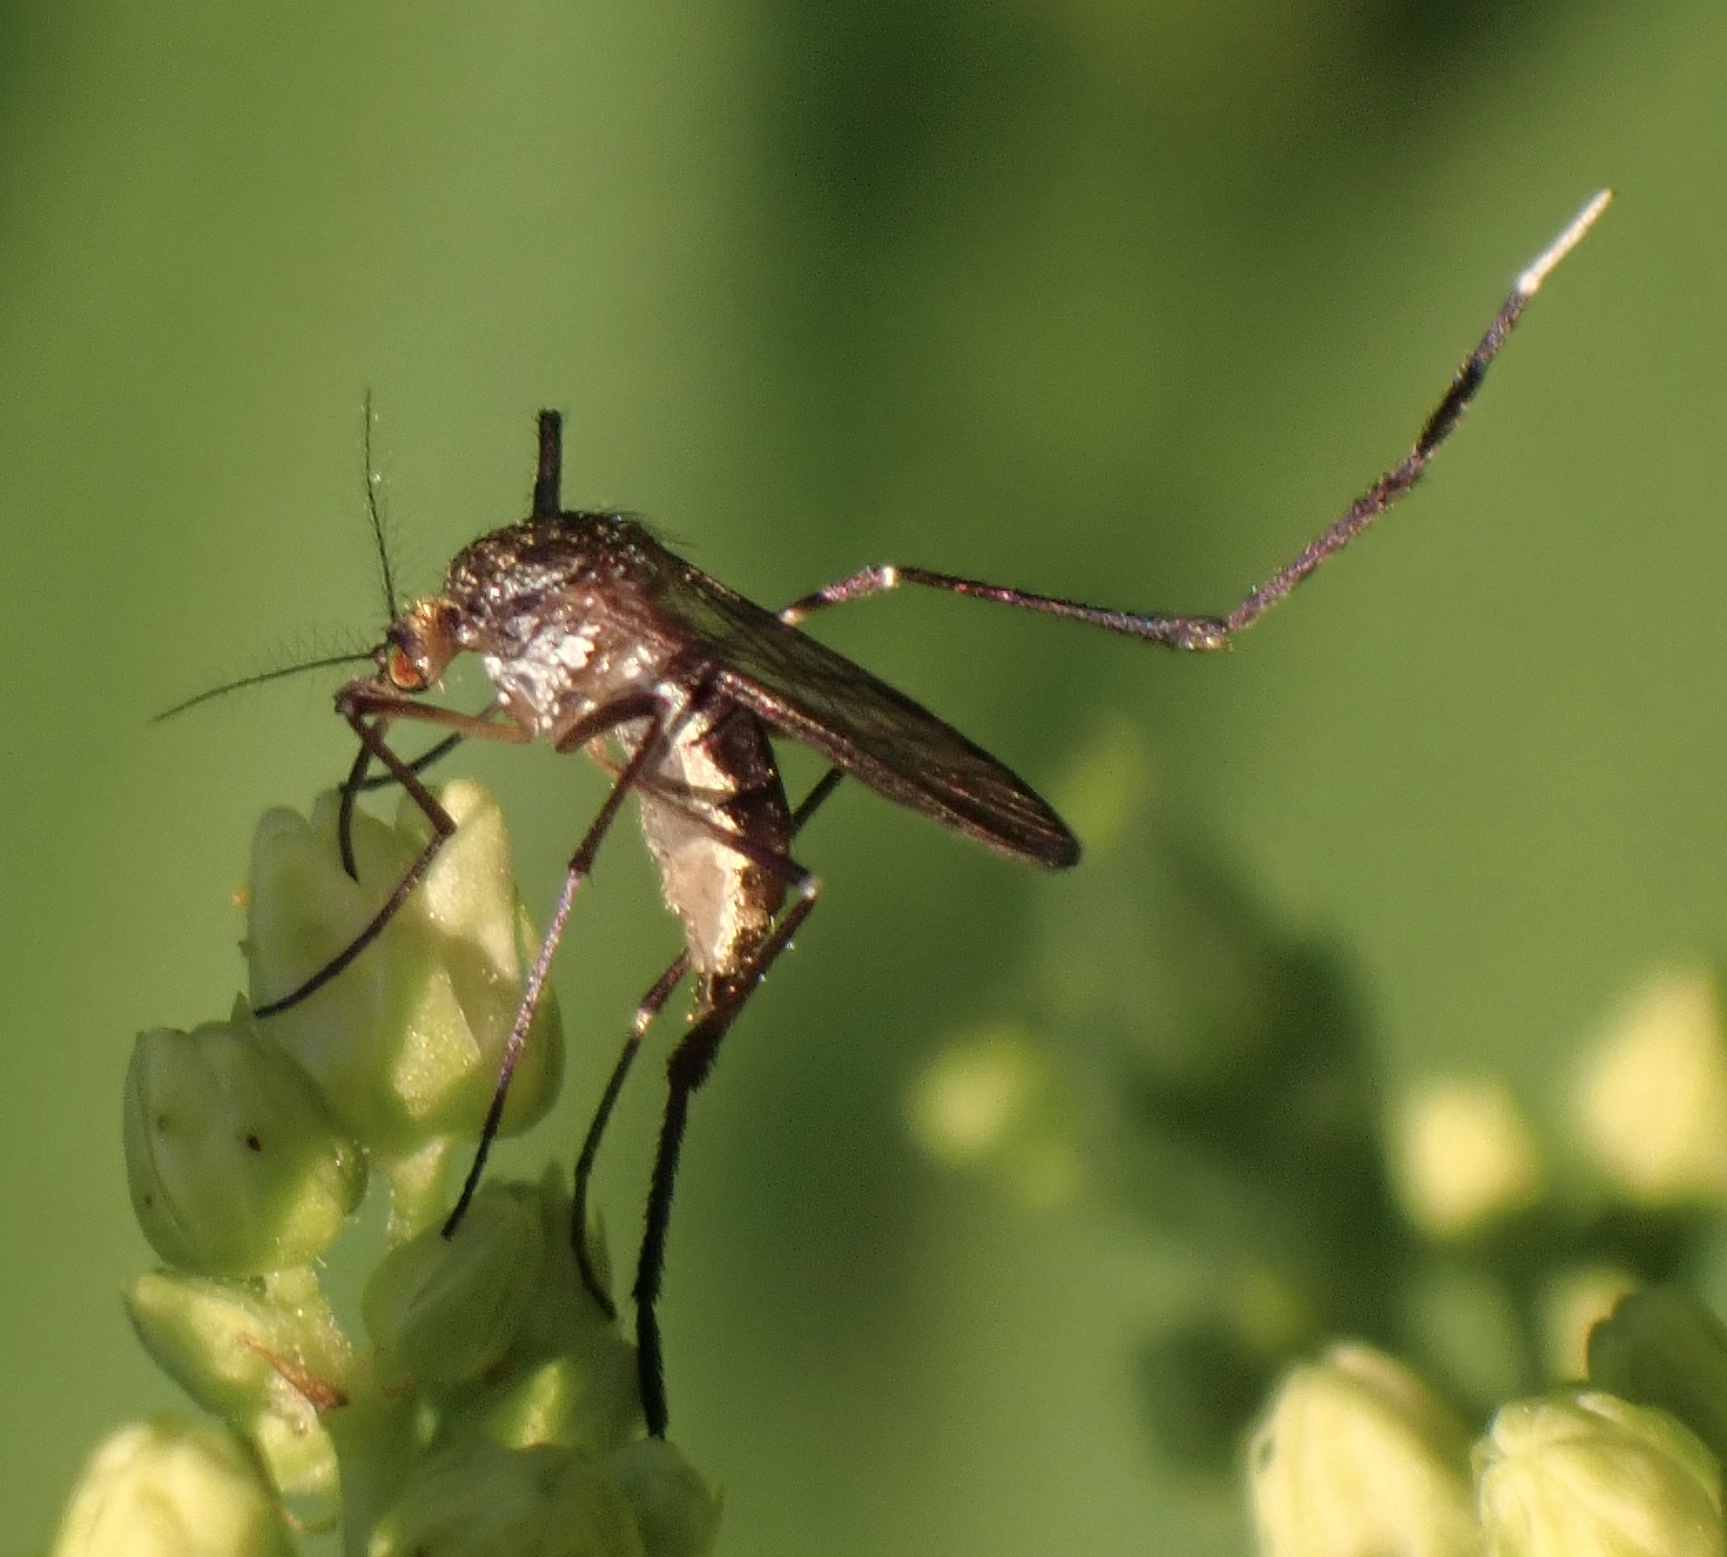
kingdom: Animalia
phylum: Arthropoda
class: Insecta
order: Diptera
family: Culicidae
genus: Psorophora
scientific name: Psorophora ferox
